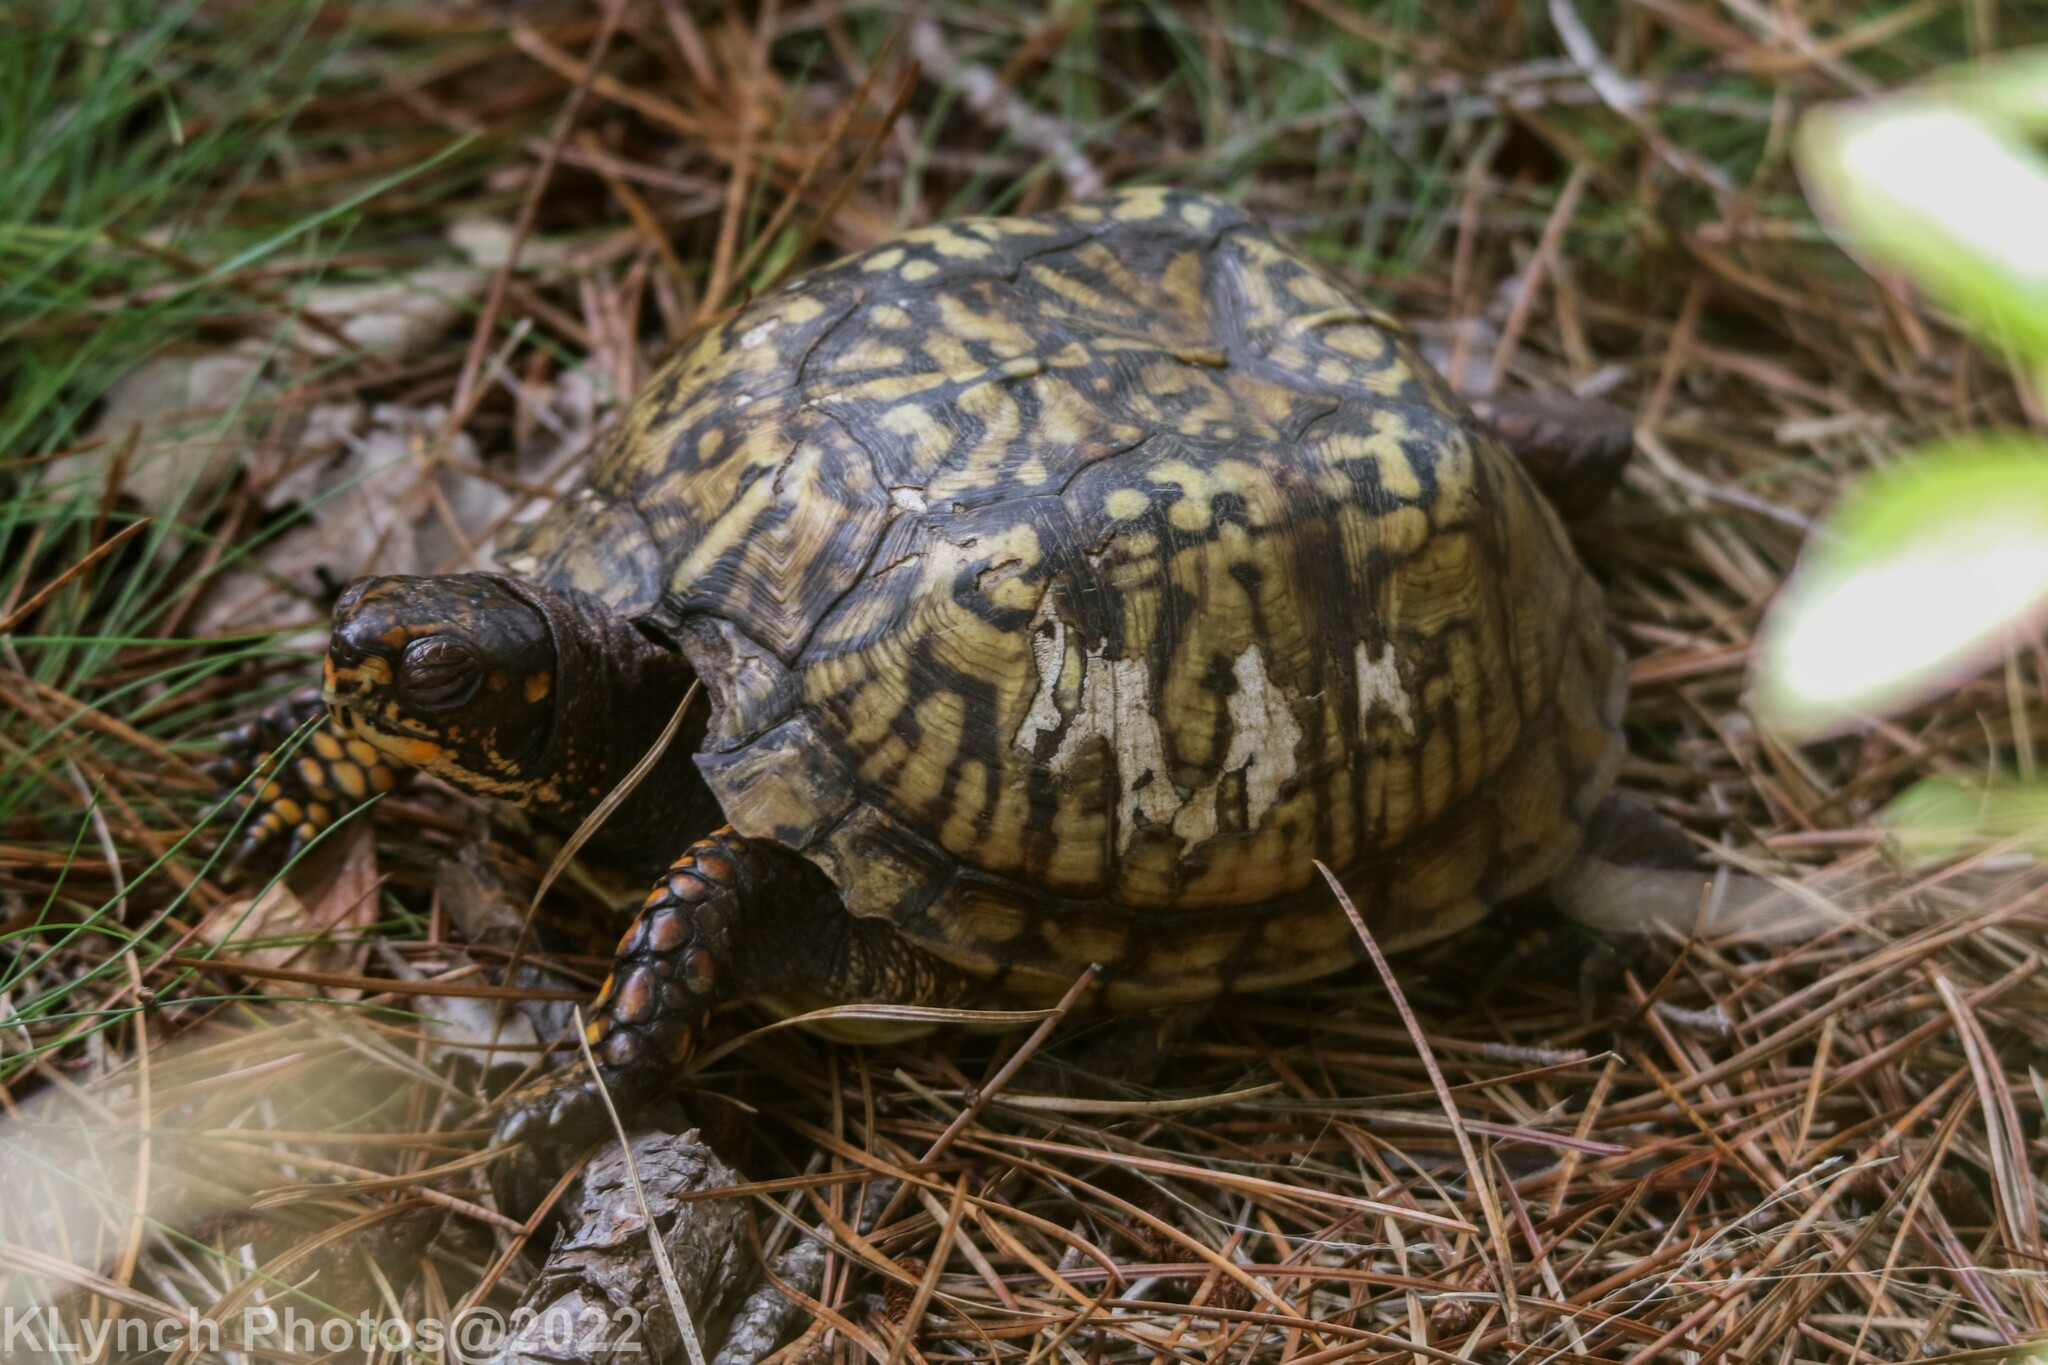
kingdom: Animalia
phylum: Chordata
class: Testudines
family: Emydidae
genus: Terrapene
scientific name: Terrapene carolina
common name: Common box turtle
